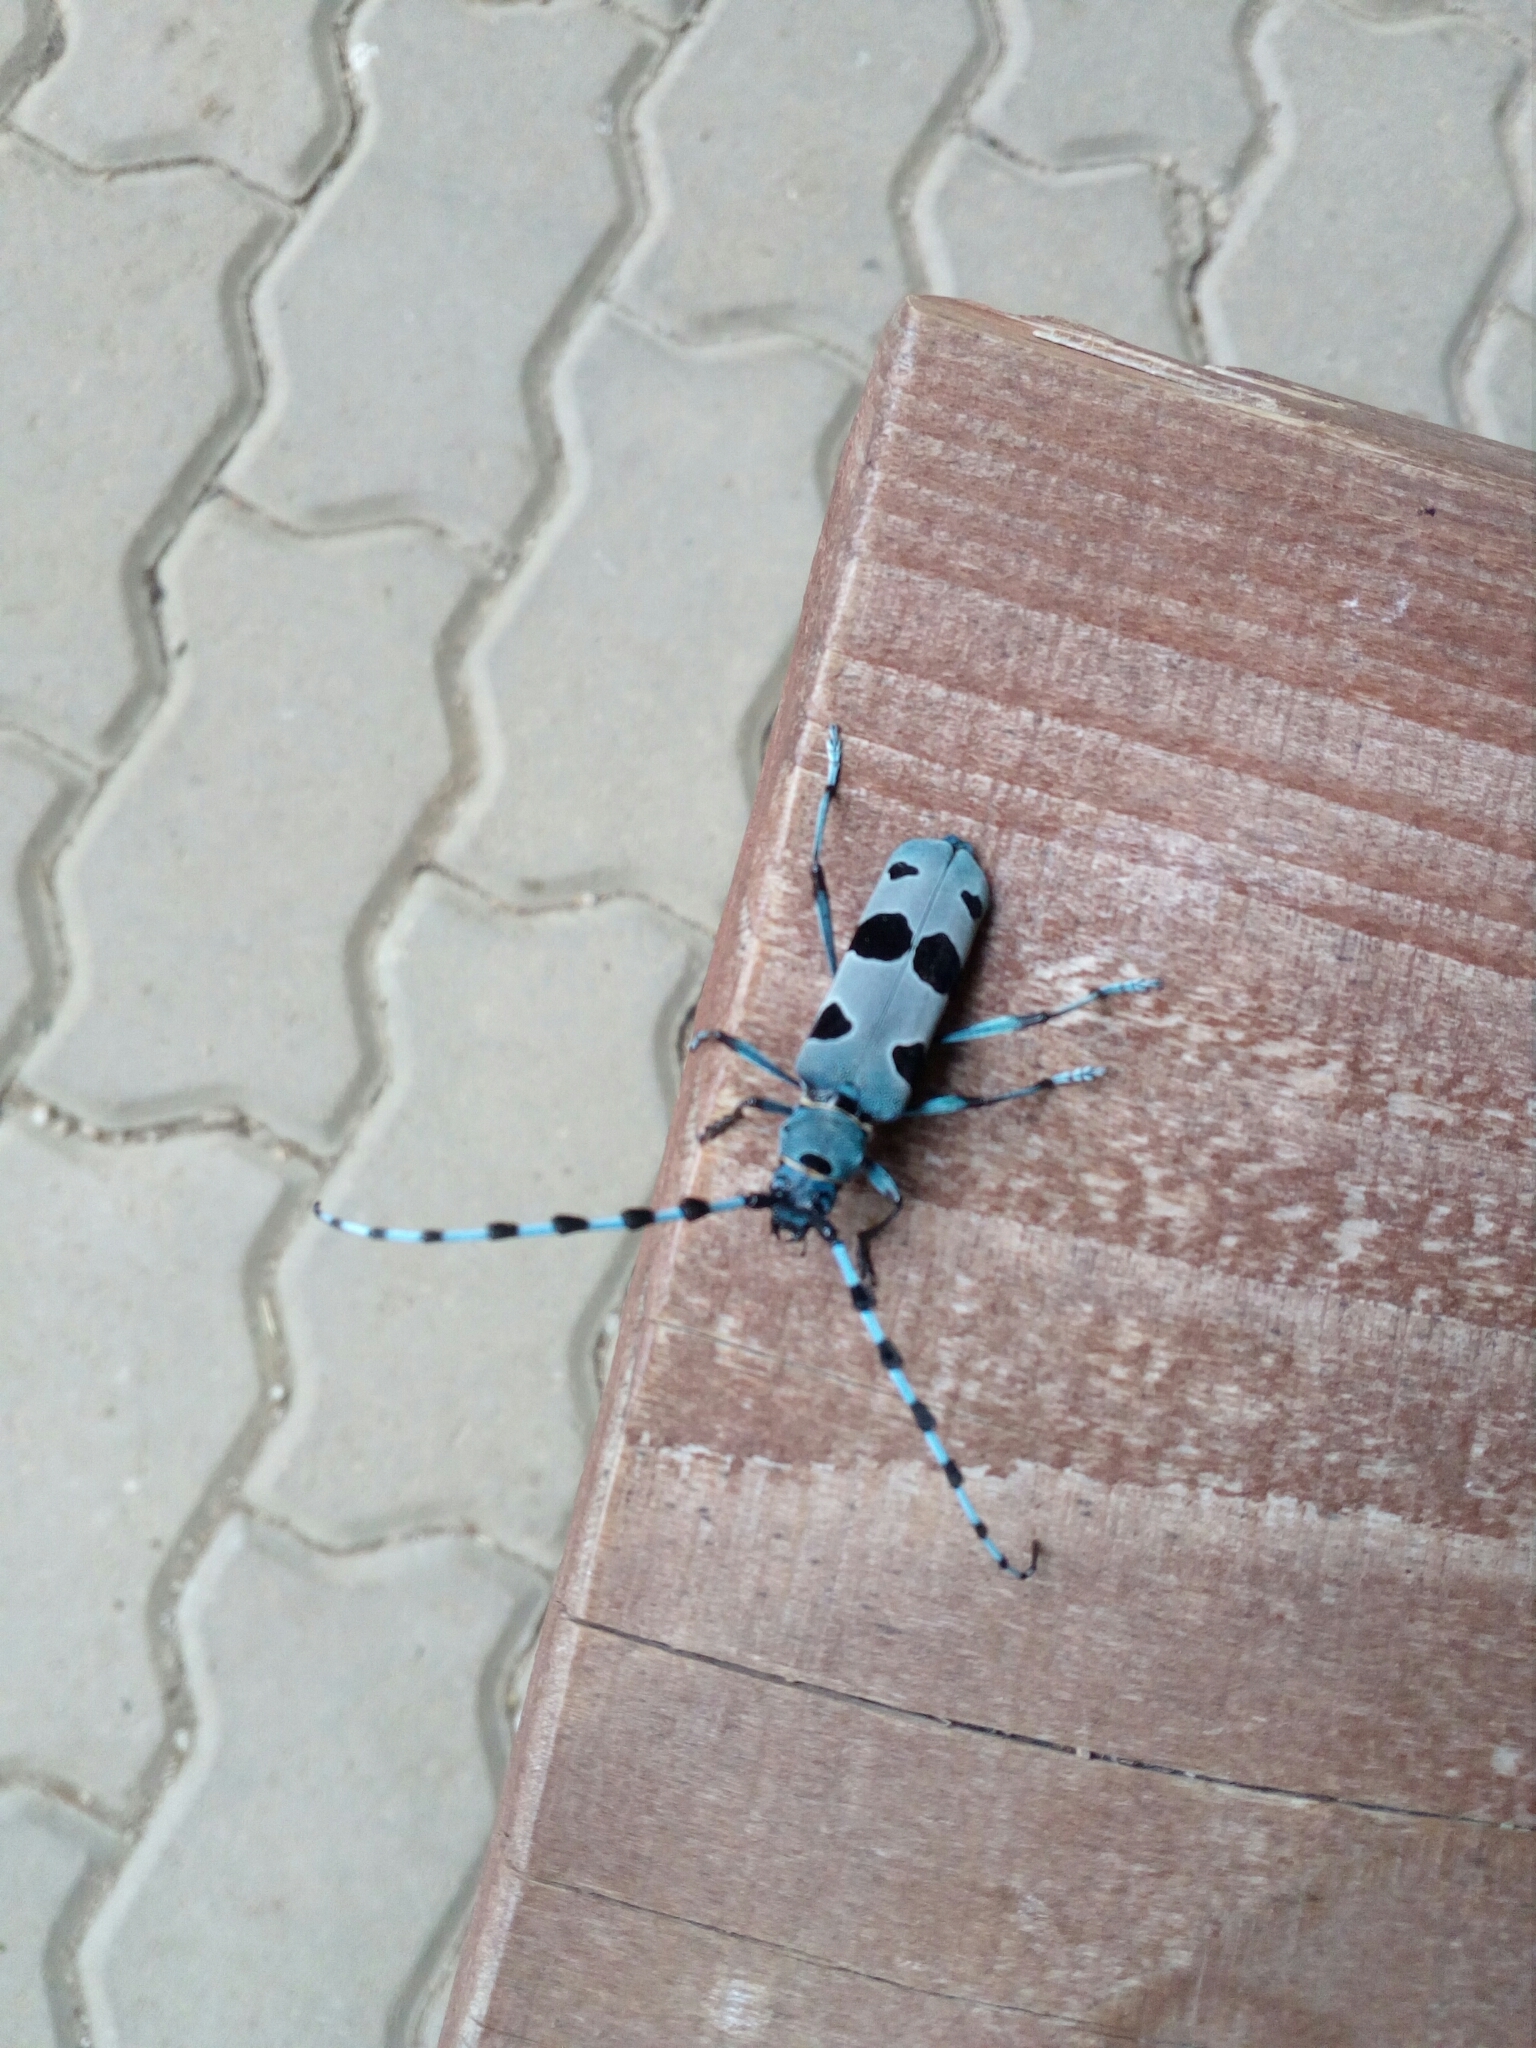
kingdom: Animalia
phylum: Arthropoda
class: Insecta
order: Coleoptera
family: Cerambycidae
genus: Rosalia
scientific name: Rosalia alpina
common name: Rosalia longicorn
